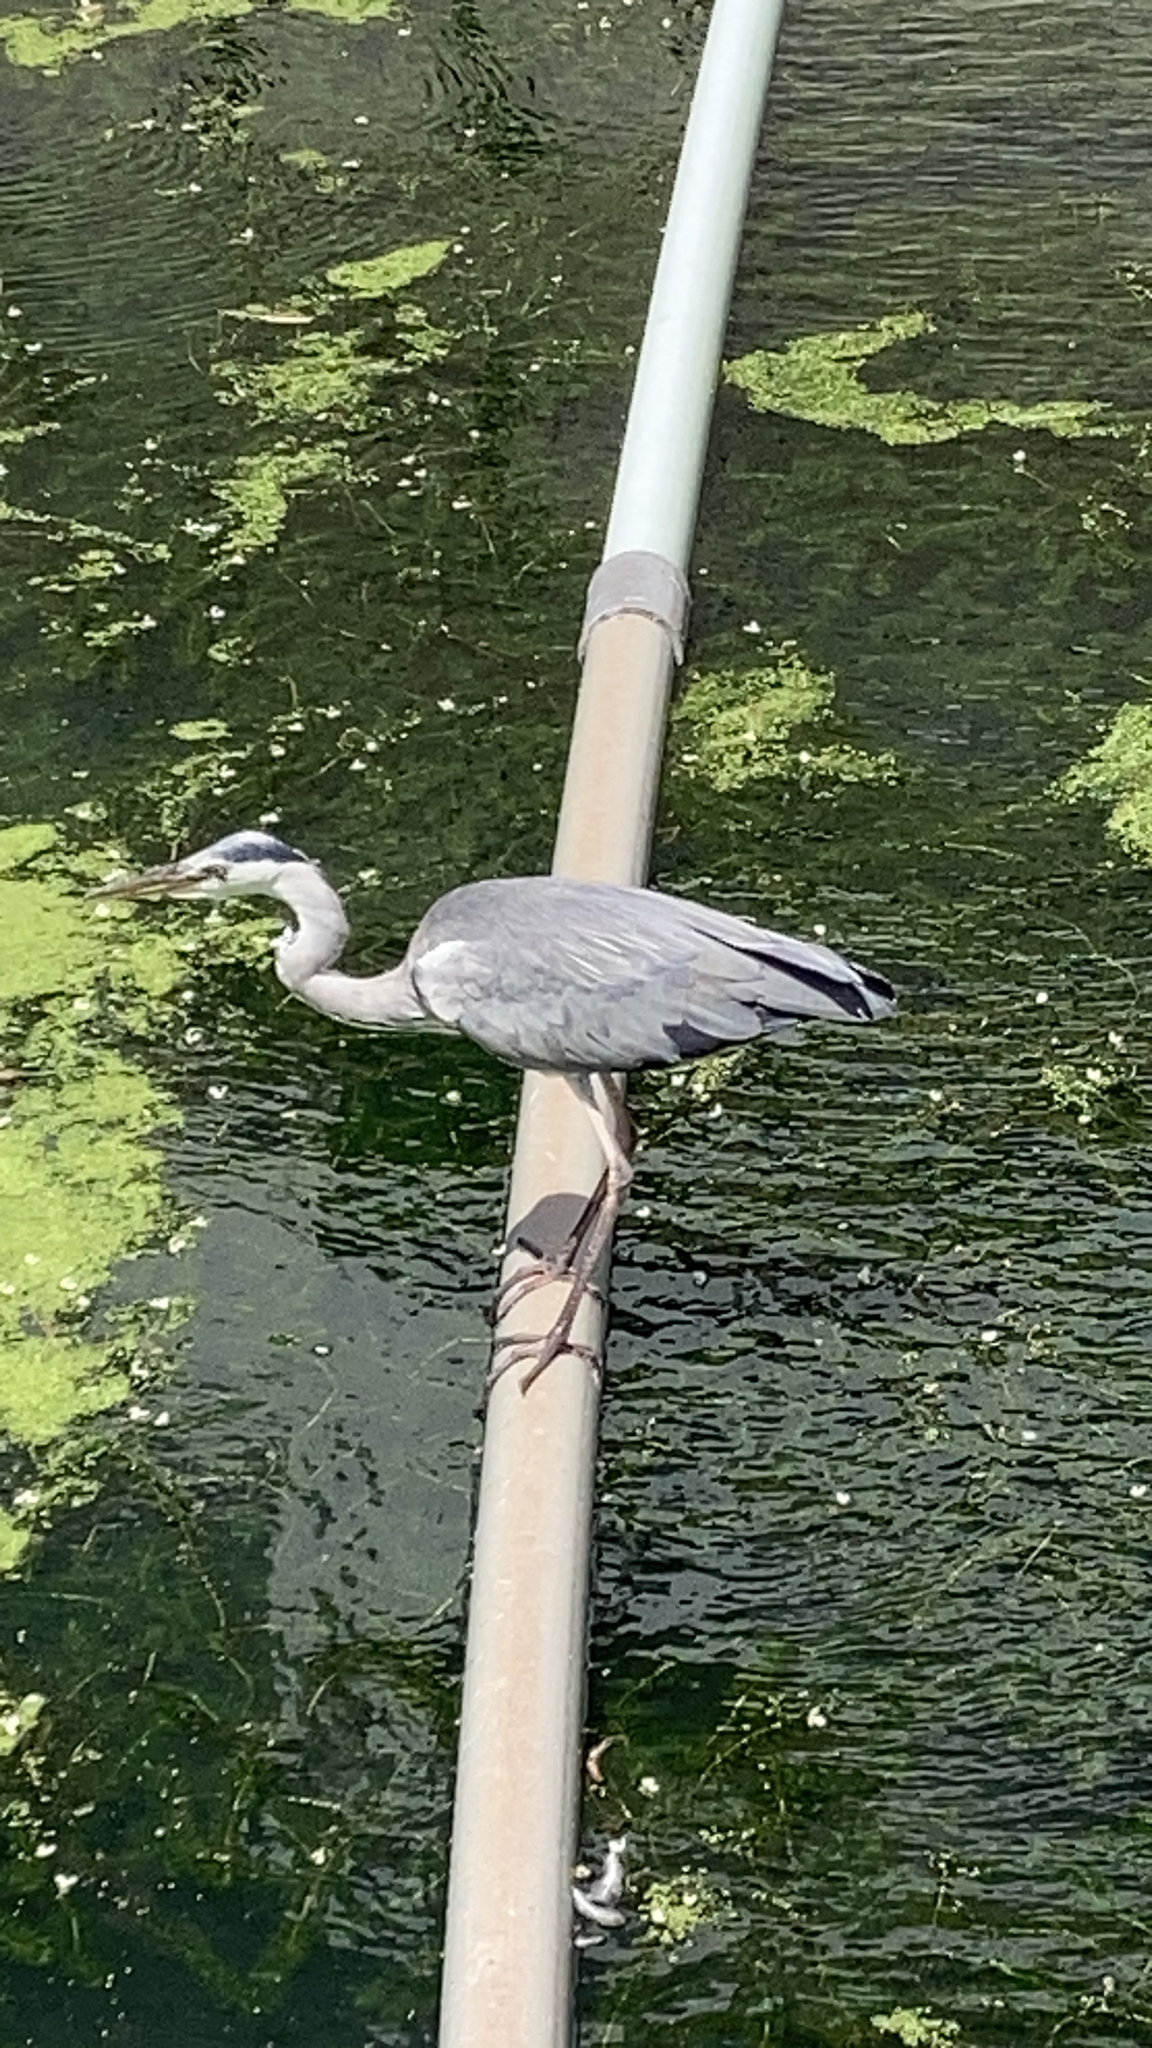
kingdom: Animalia
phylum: Chordata
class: Aves
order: Pelecaniformes
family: Ardeidae
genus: Ardea
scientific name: Ardea cinerea
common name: Grey heron
